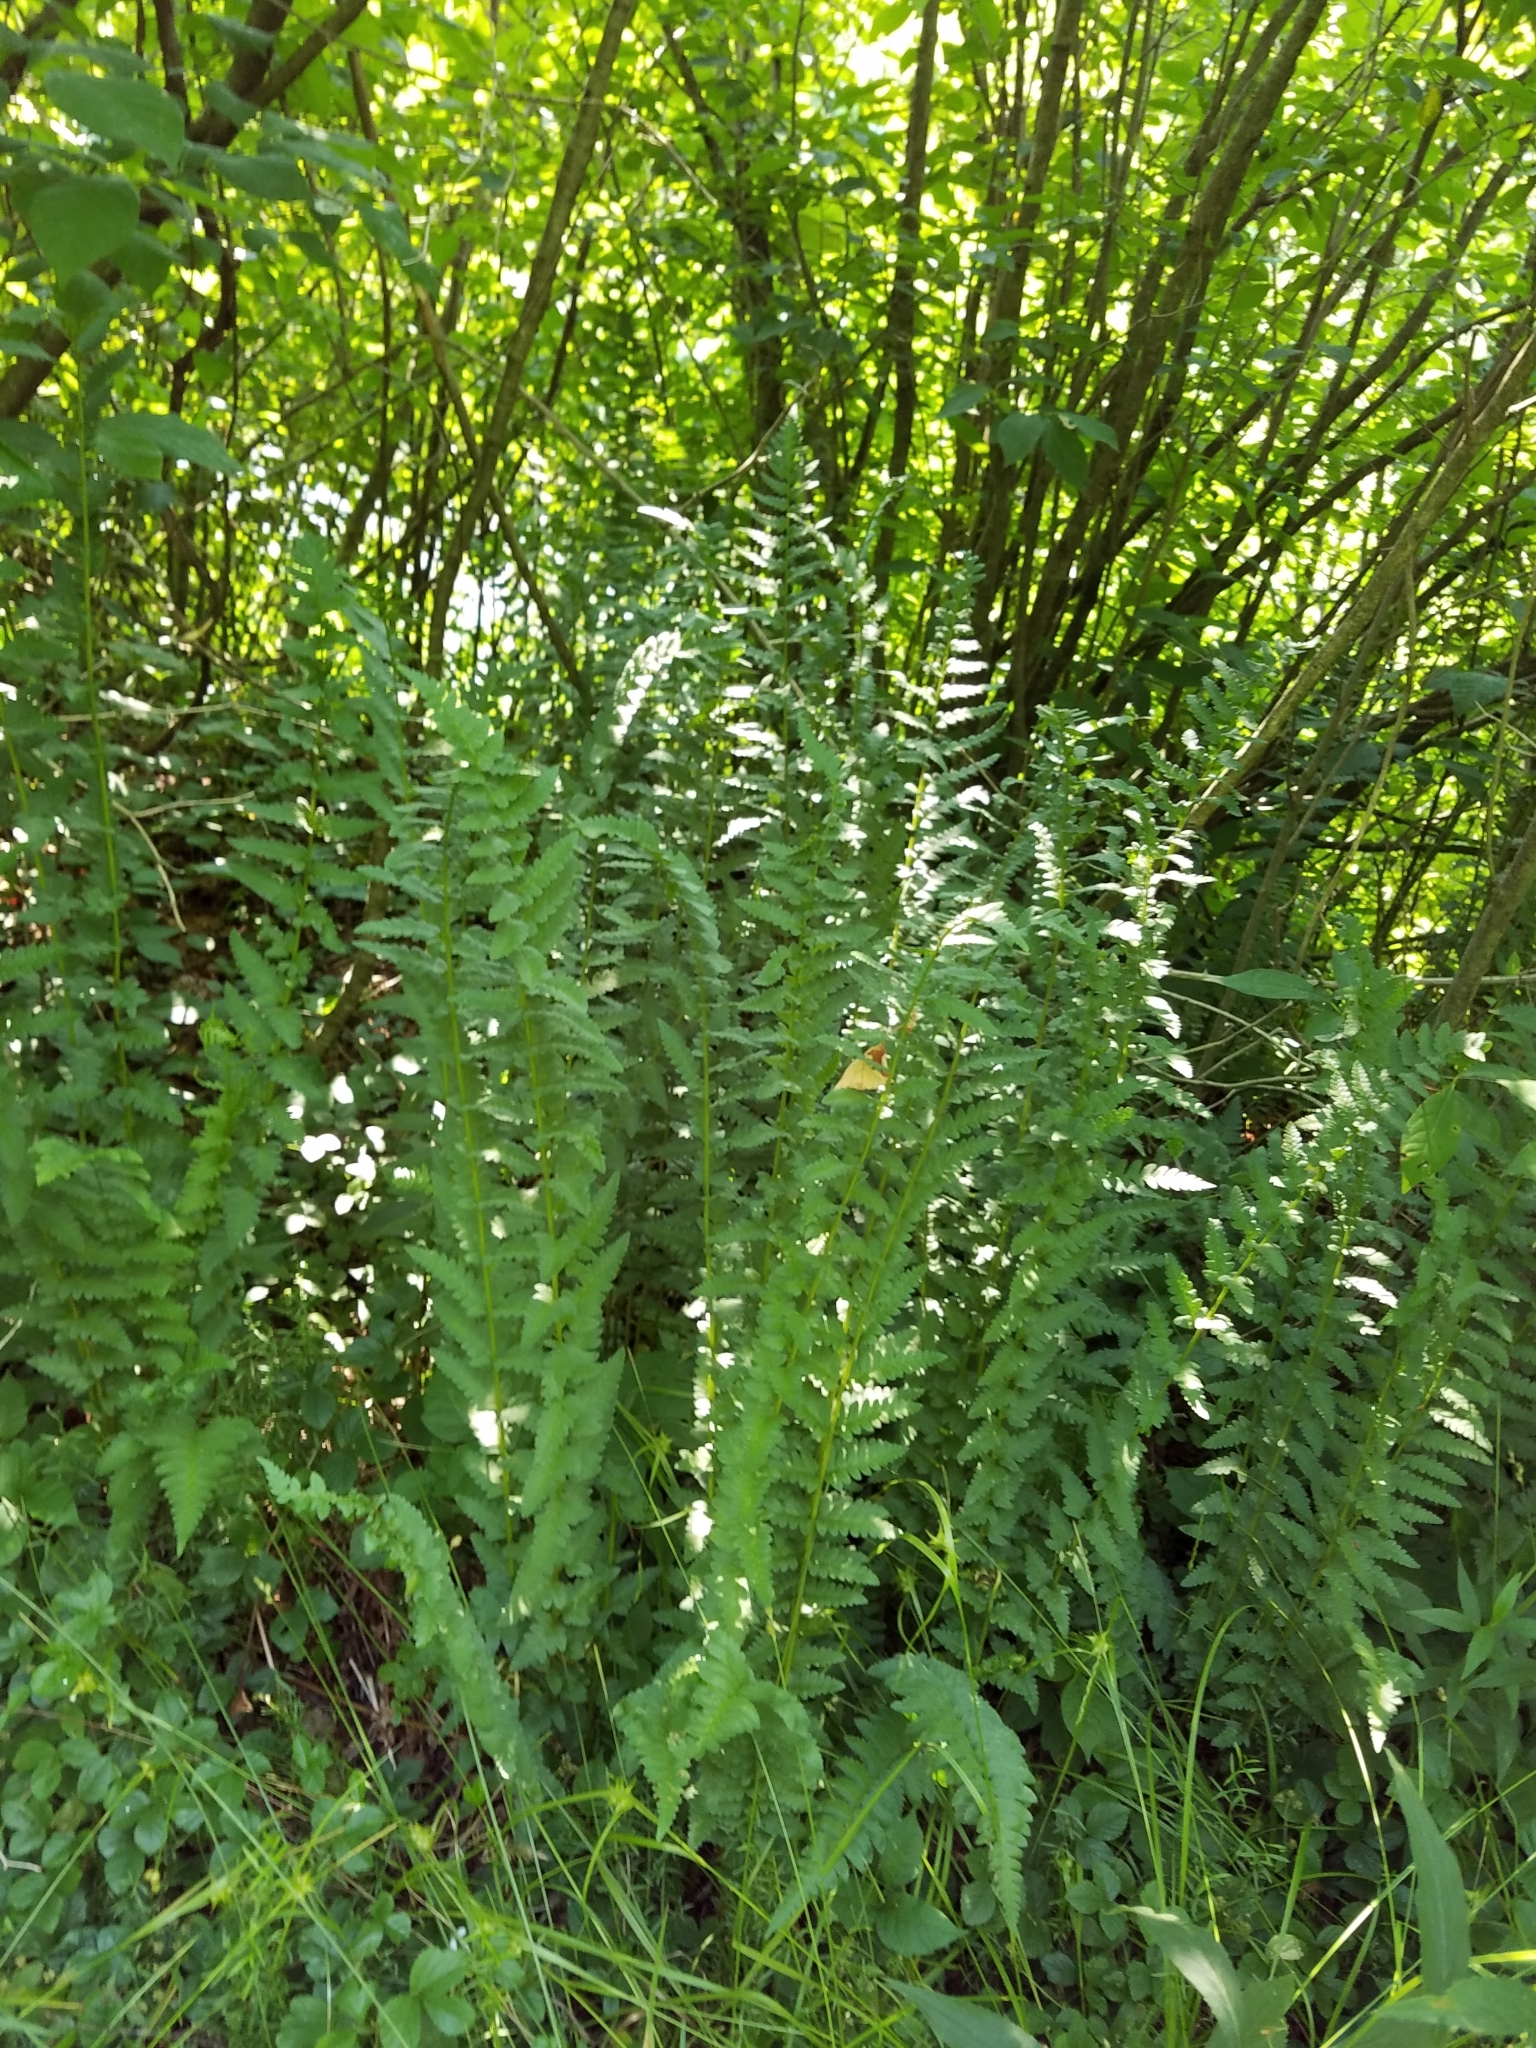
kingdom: Plantae
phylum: Tracheophyta
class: Polypodiopsida
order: Polypodiales
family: Dryopteridaceae
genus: Dryopteris
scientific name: Dryopteris cristata
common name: Crested wood fern
